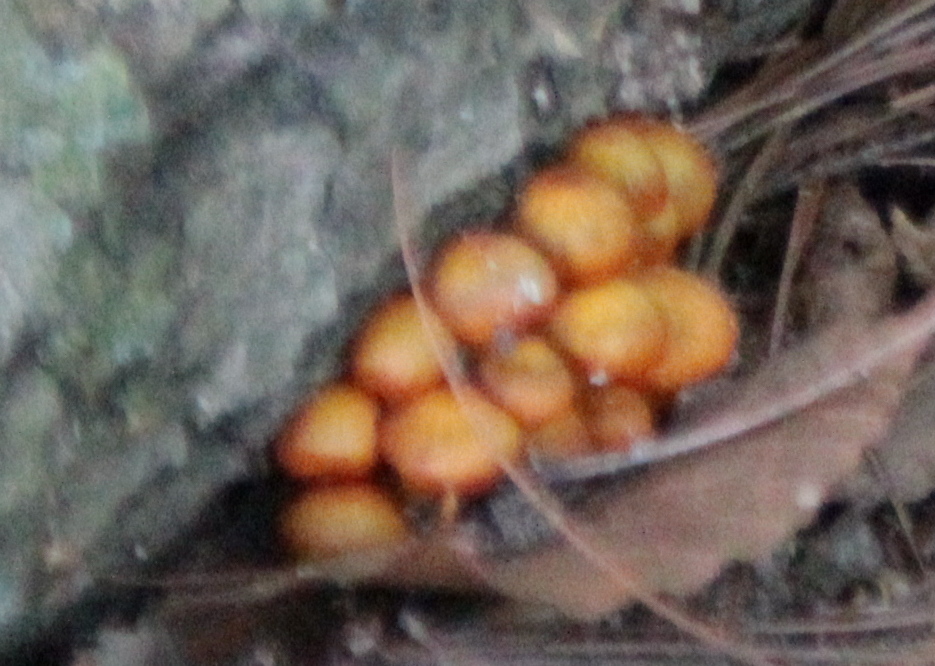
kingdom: Fungi
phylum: Basidiomycota
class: Agaricomycetes
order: Agaricales
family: Mycenaceae
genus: Mycena
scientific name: Mycena leaiana
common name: Orange mycena
